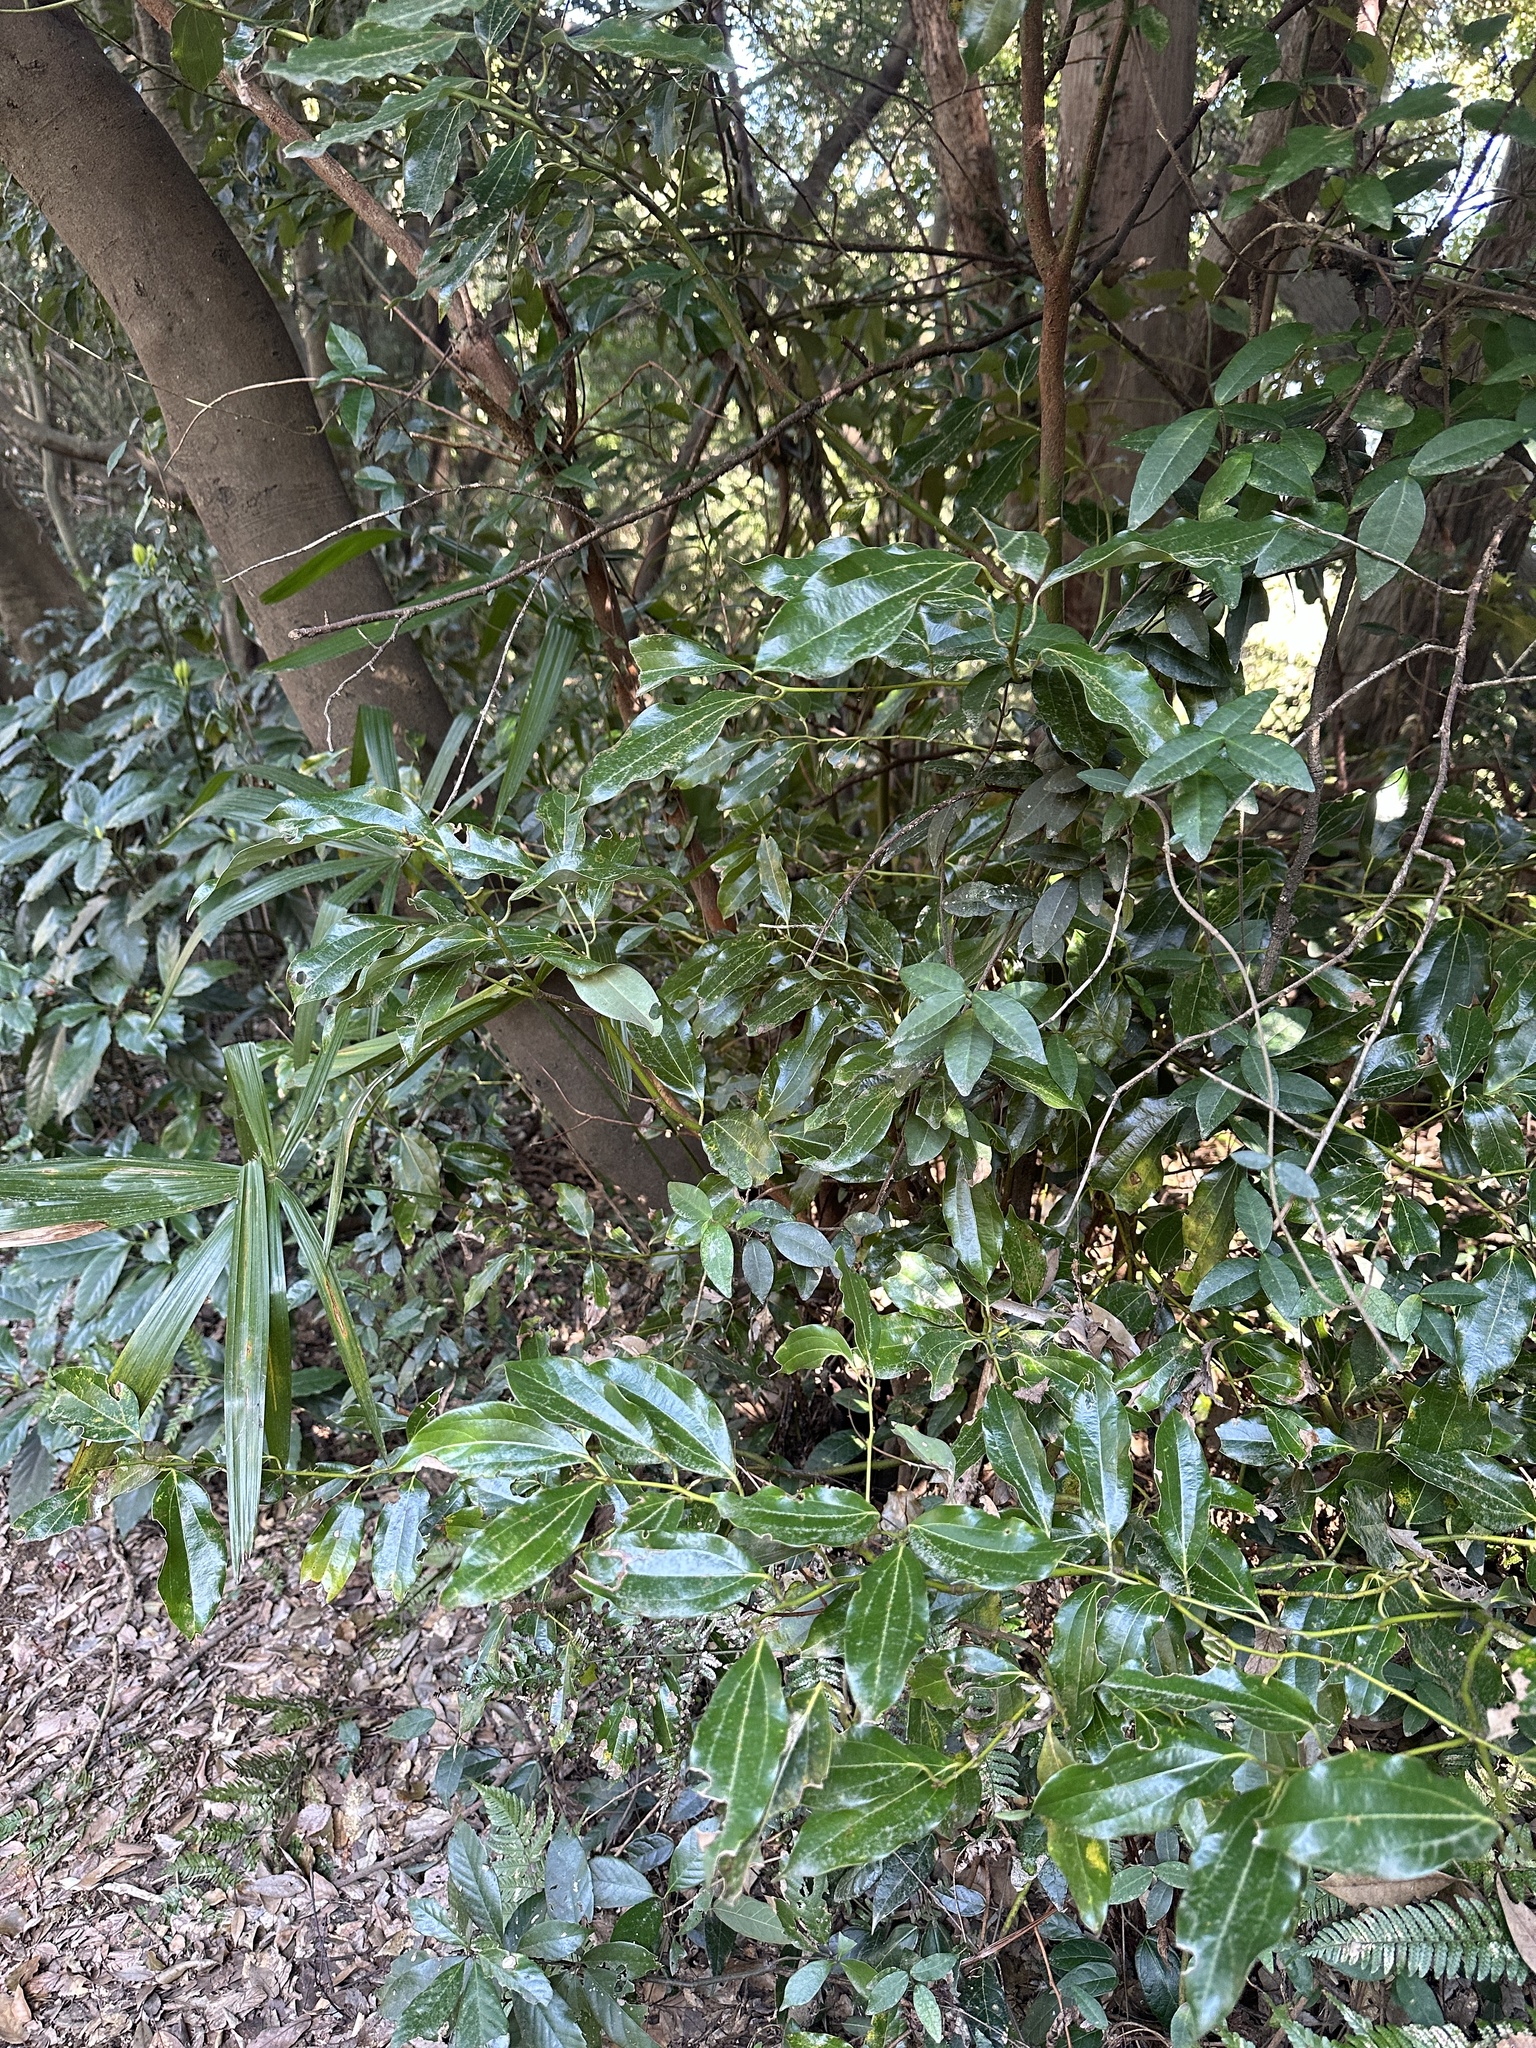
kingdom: Plantae
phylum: Tracheophyta
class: Magnoliopsida
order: Laurales
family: Lauraceae
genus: Cinnamomum
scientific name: Cinnamomum chekiangense
